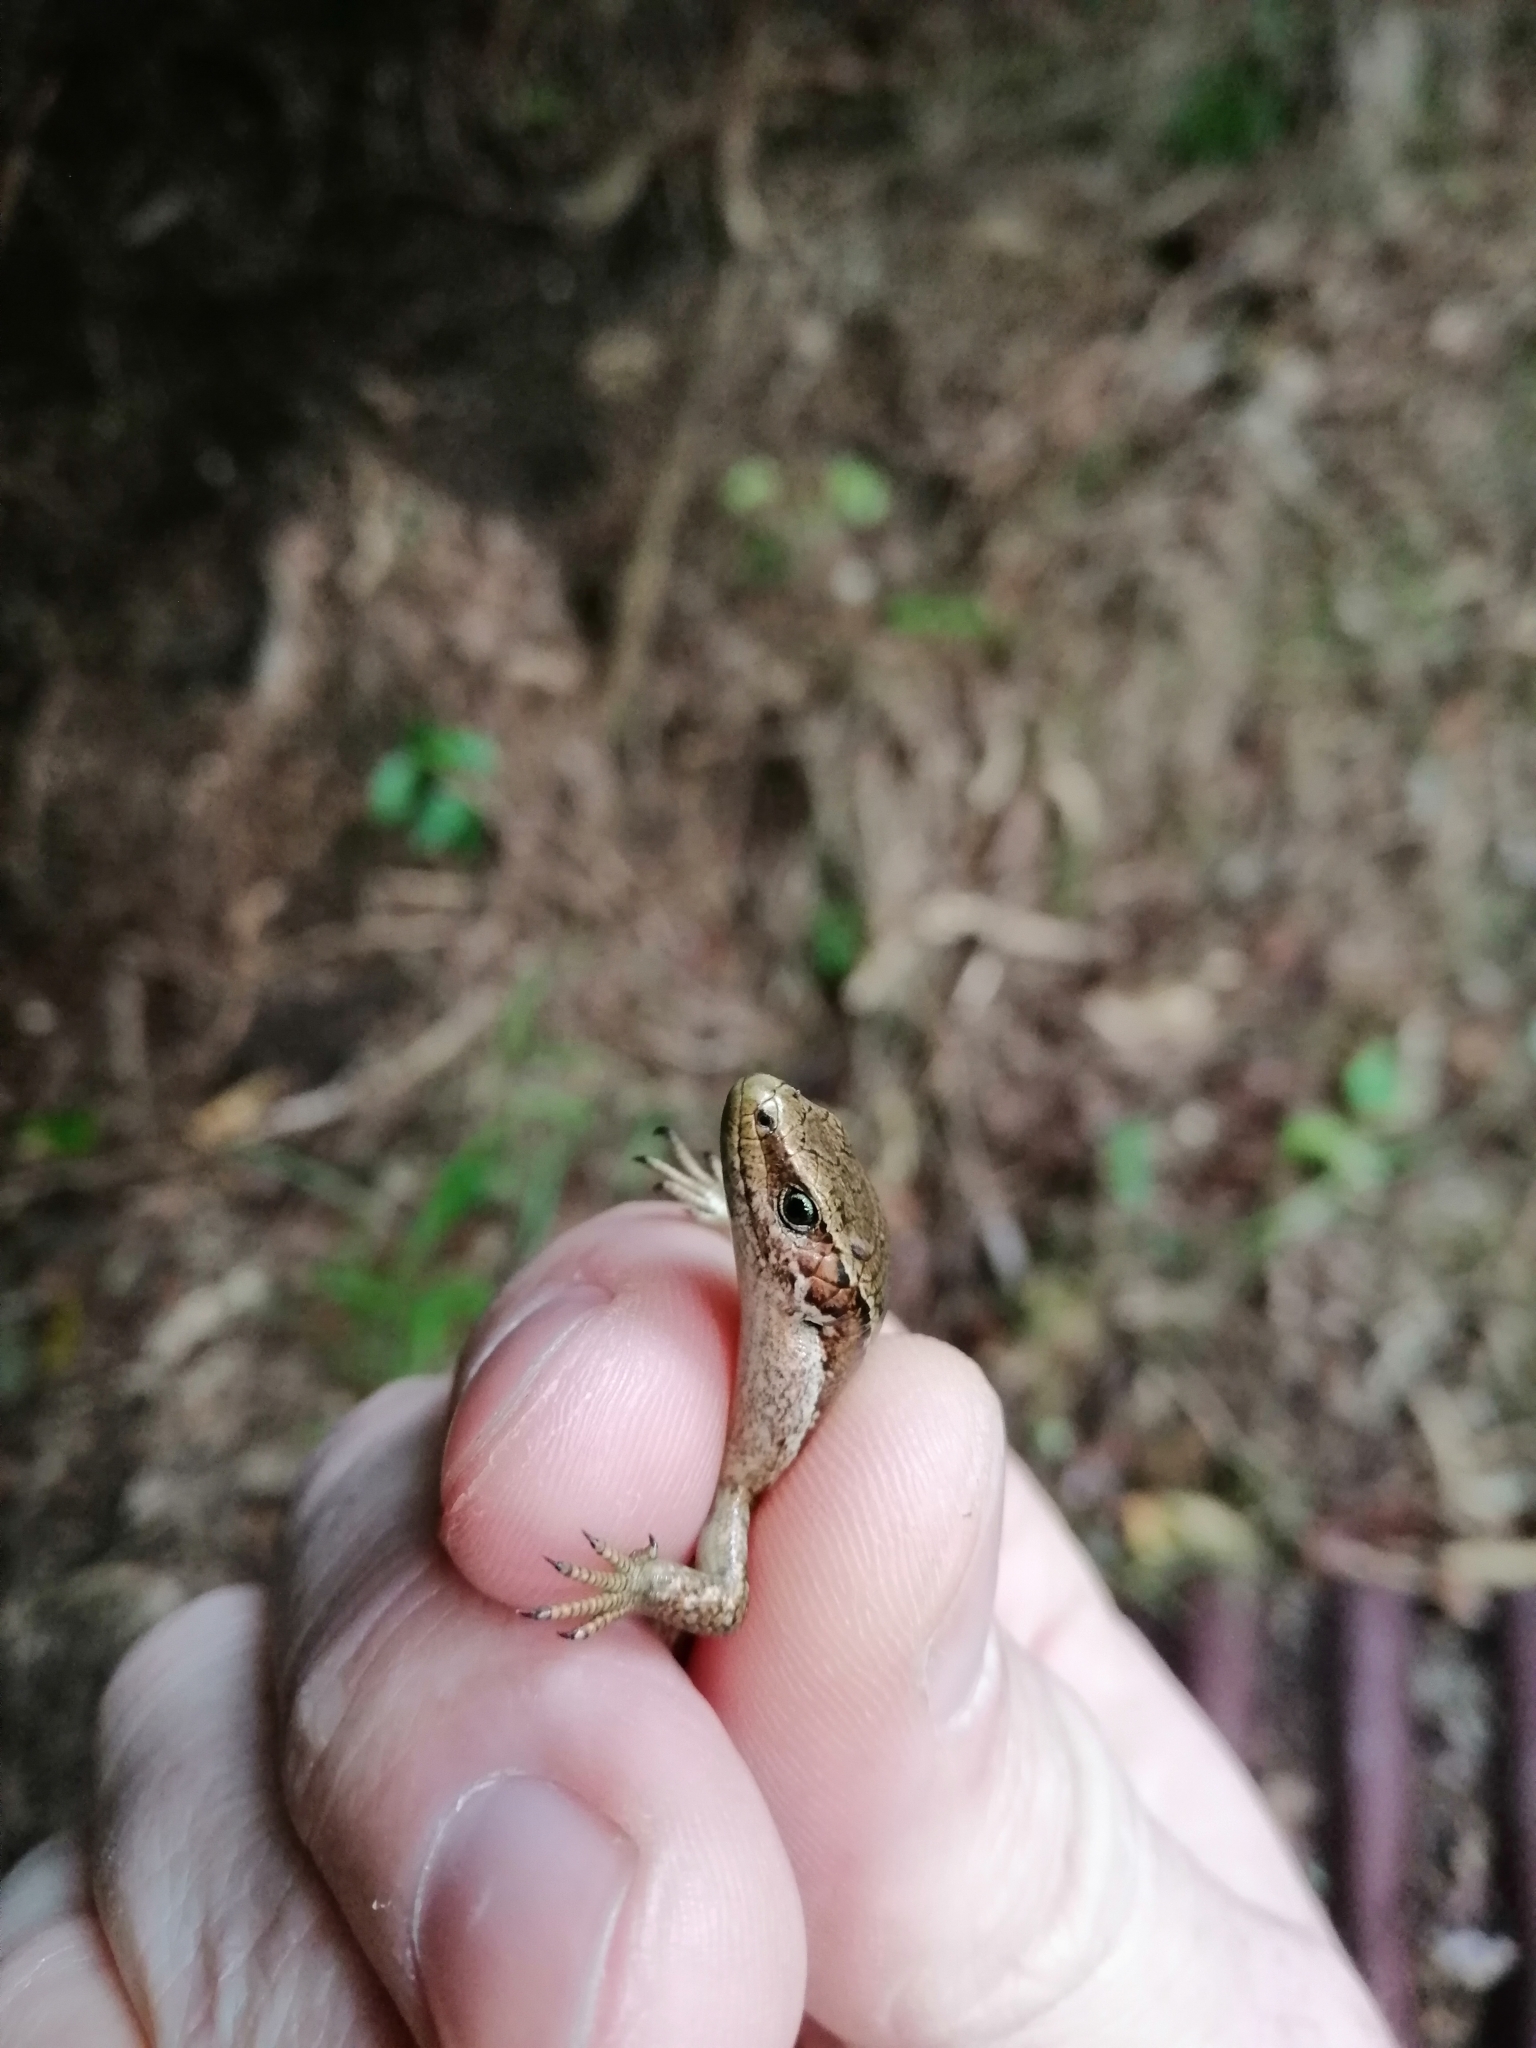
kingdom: Animalia
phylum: Chordata
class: Squamata
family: Scincidae
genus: Oligosoma
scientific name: Oligosoma polychroma
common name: Common new zealand skink
